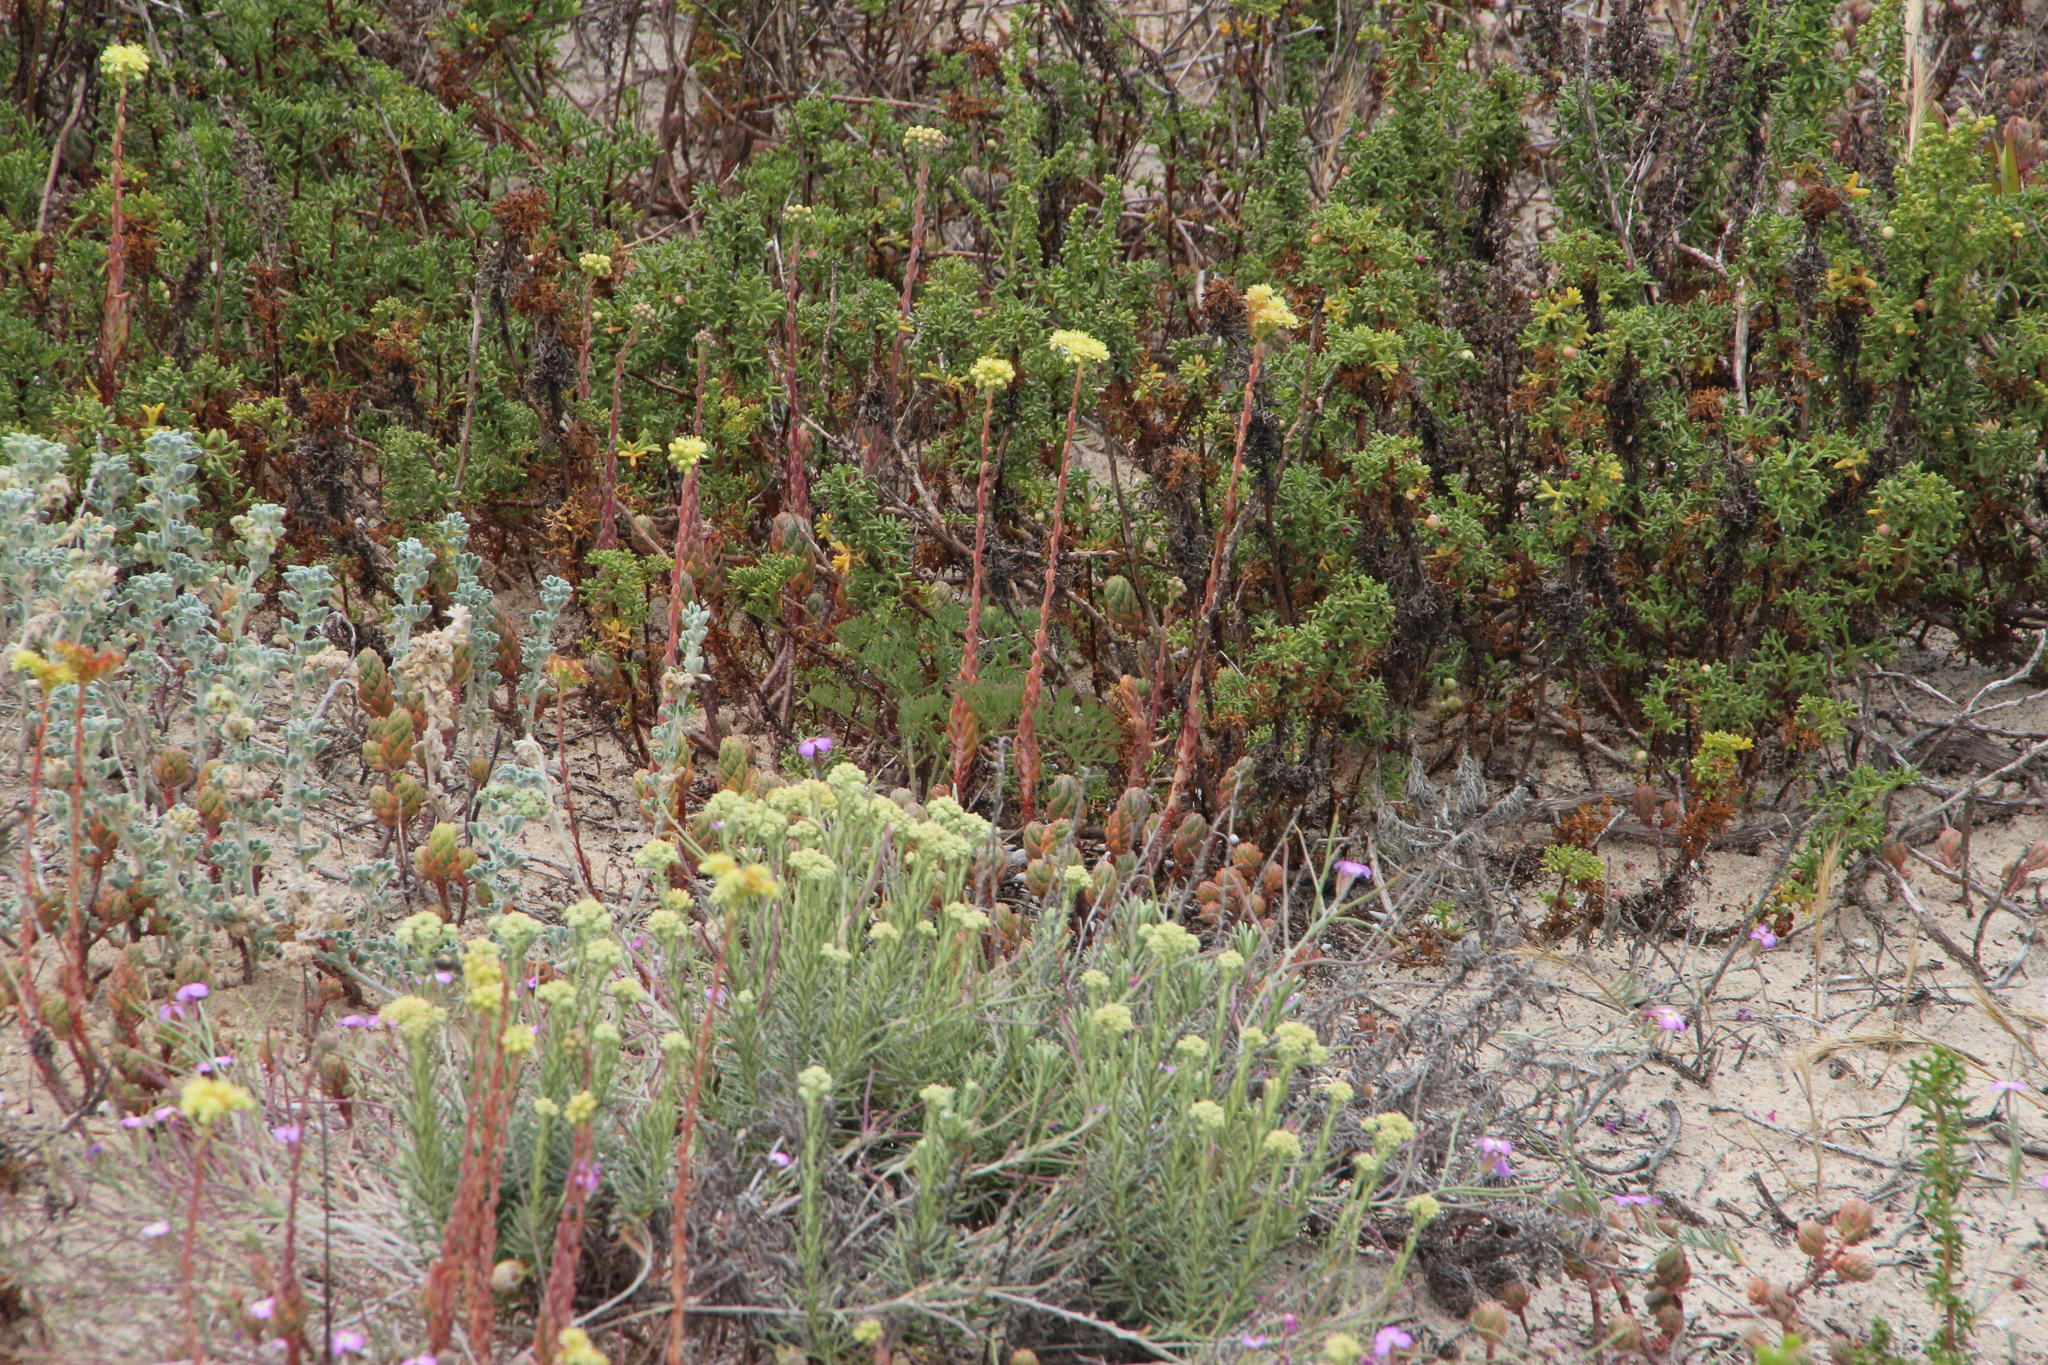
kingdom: Plantae
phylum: Tracheophyta
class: Magnoliopsida
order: Saxifragales
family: Crassulaceae
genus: Petrosedum
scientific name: Petrosedum sediforme
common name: Pale stonecrop
